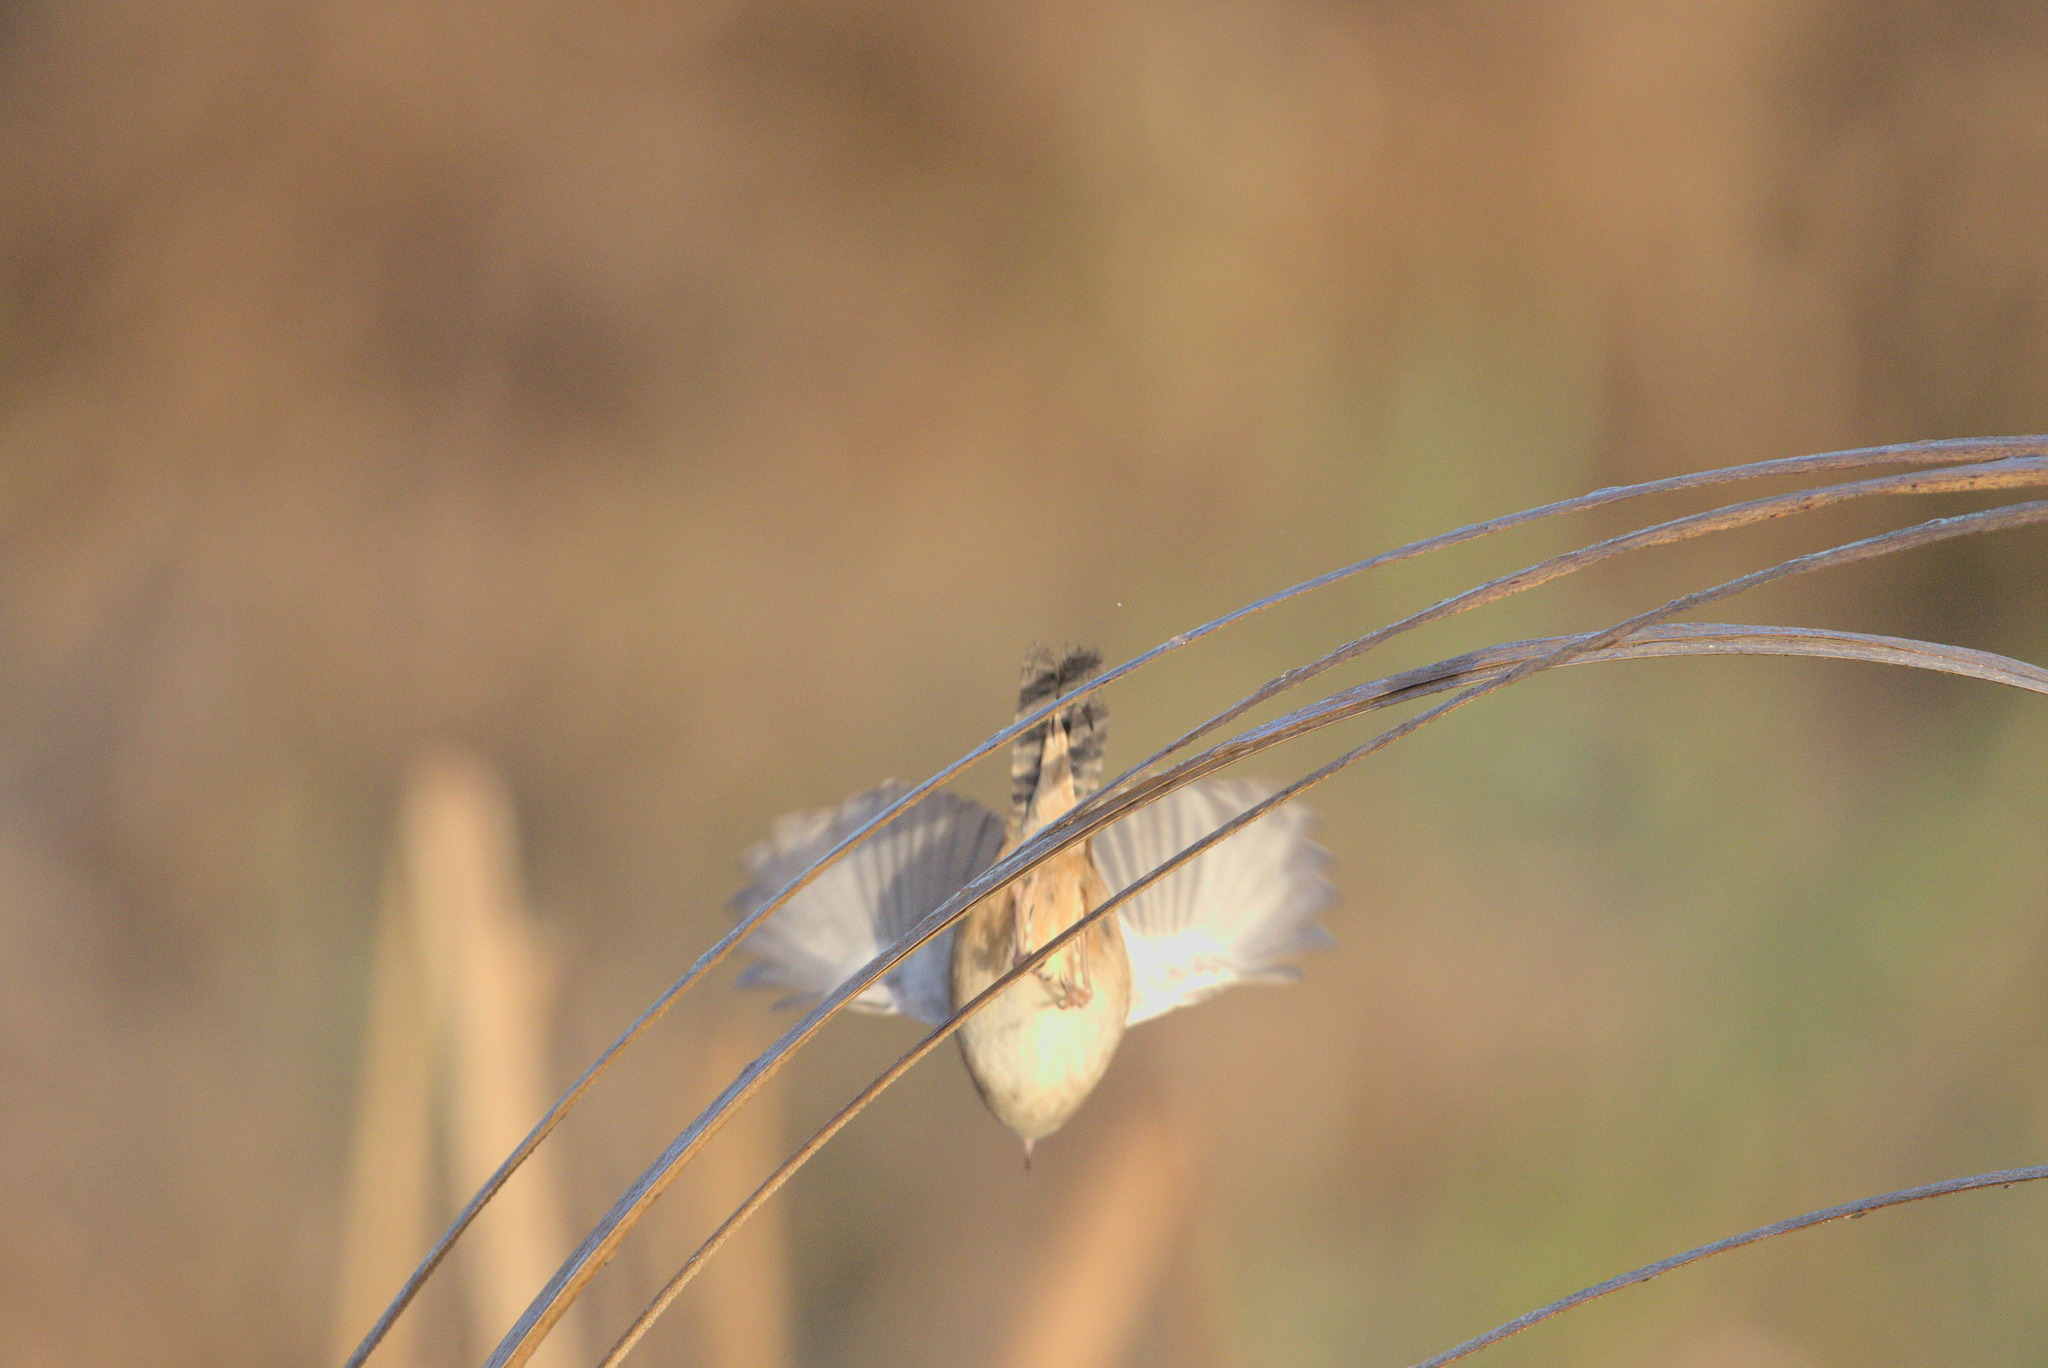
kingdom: Animalia
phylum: Chordata
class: Aves
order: Passeriformes
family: Troglodytidae
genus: Cistothorus
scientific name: Cistothorus palustris
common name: Marsh wren
